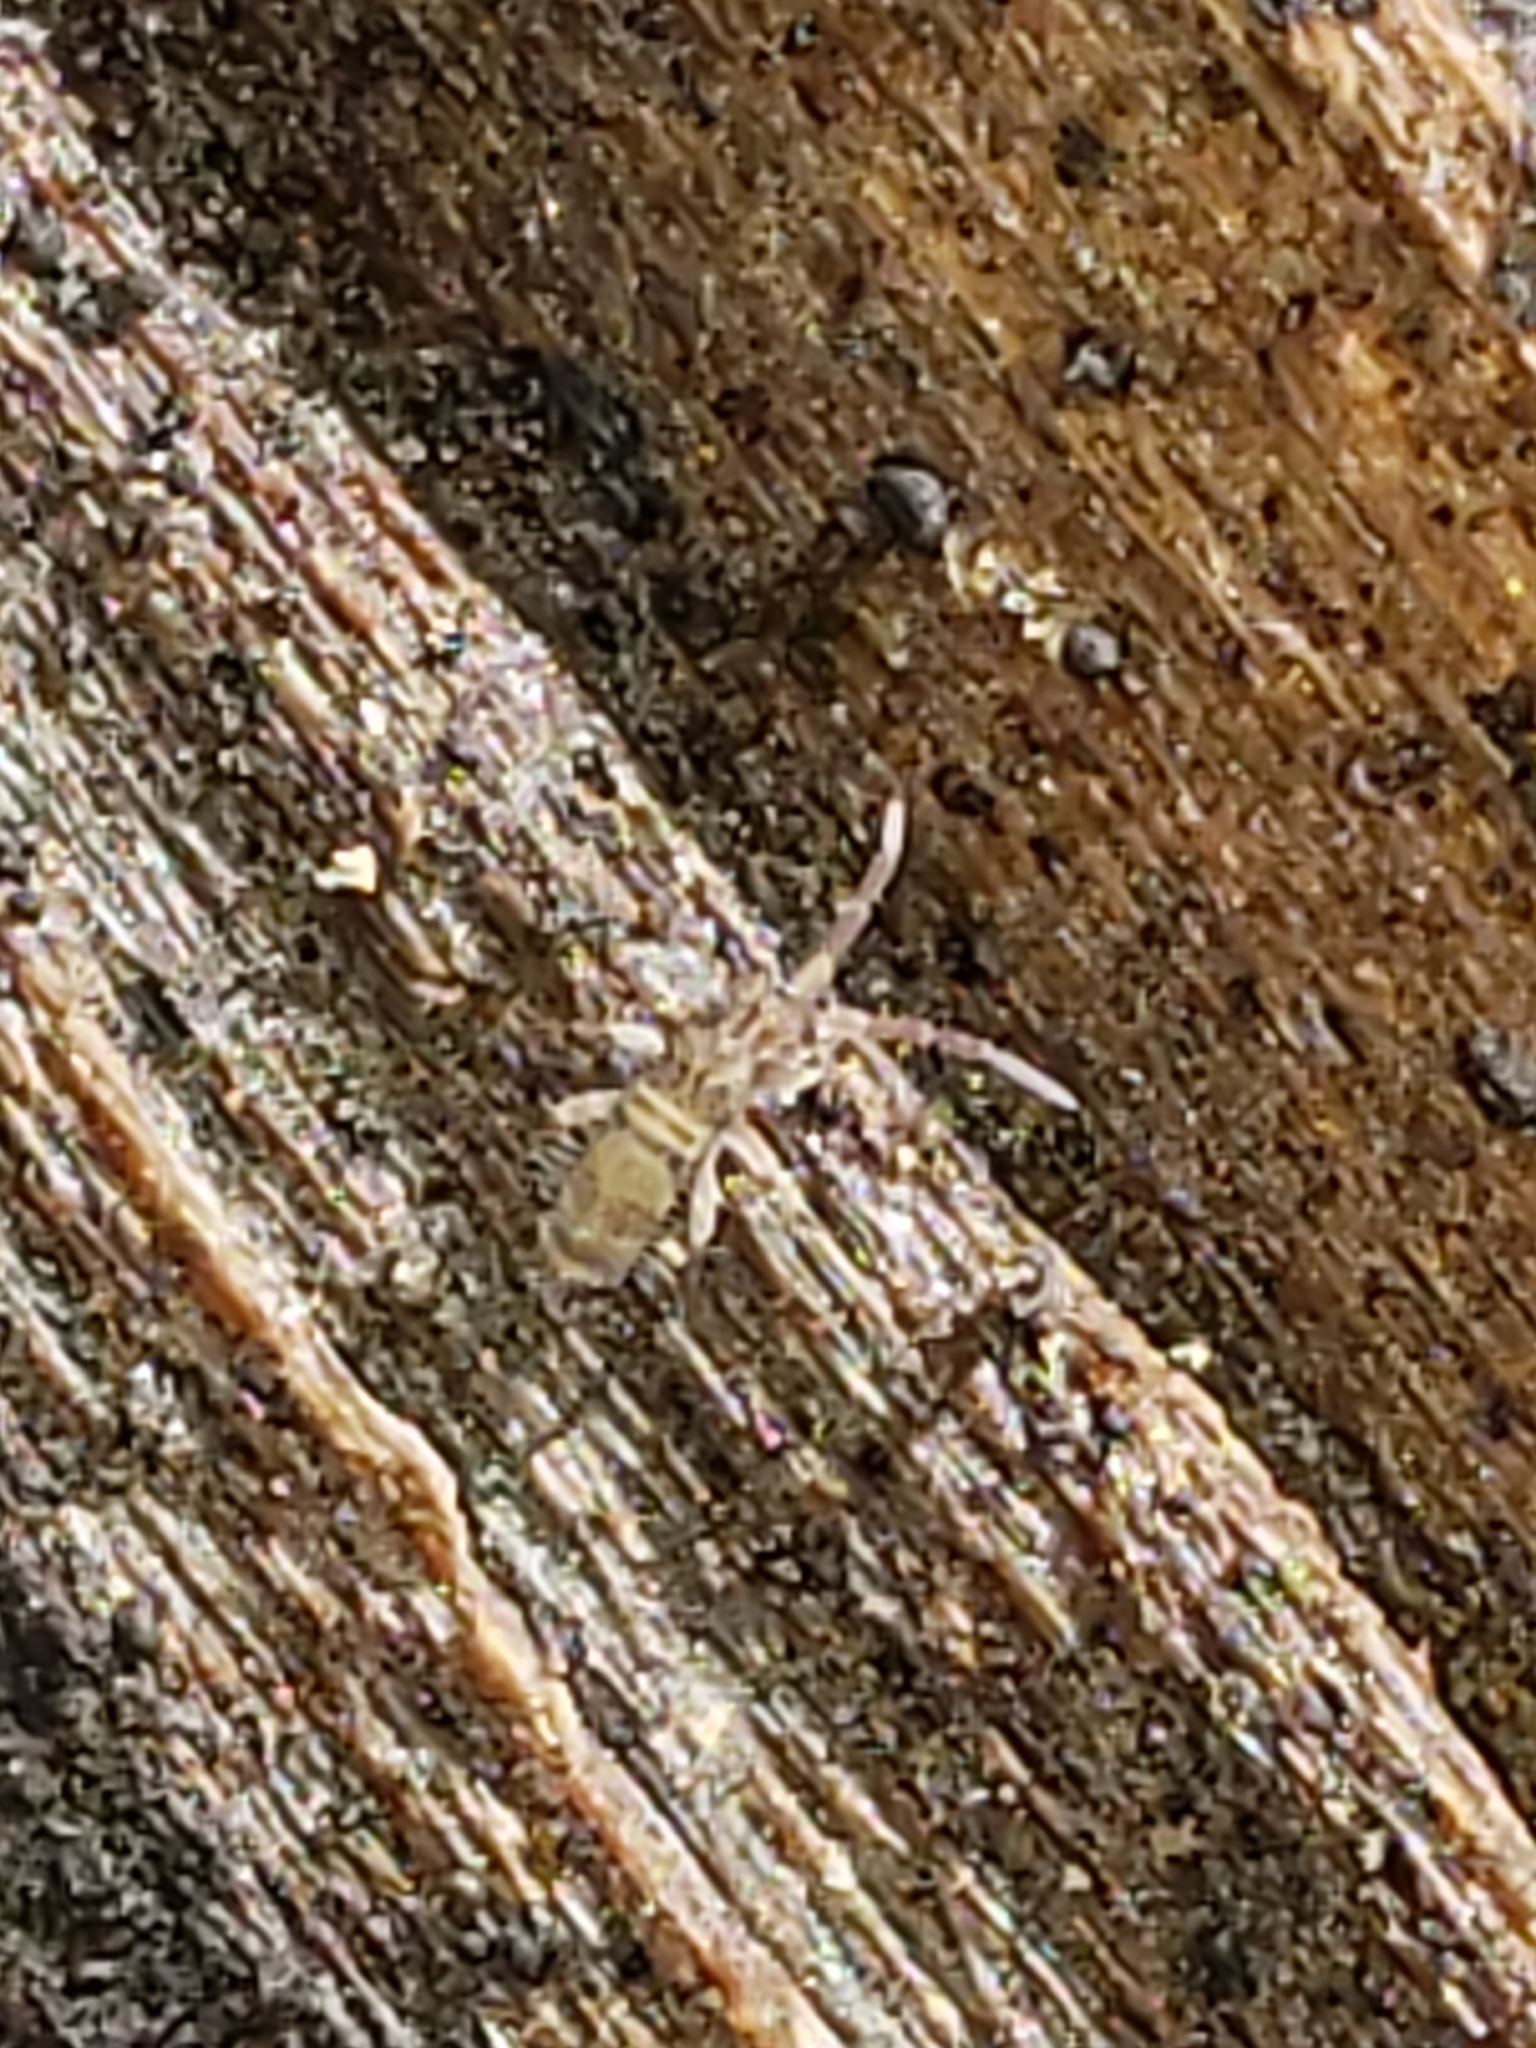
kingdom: Animalia
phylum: Arthropoda
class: Collembola
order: Entomobryomorpha
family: Entomobryidae
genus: Homidia
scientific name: Homidia sauteri
